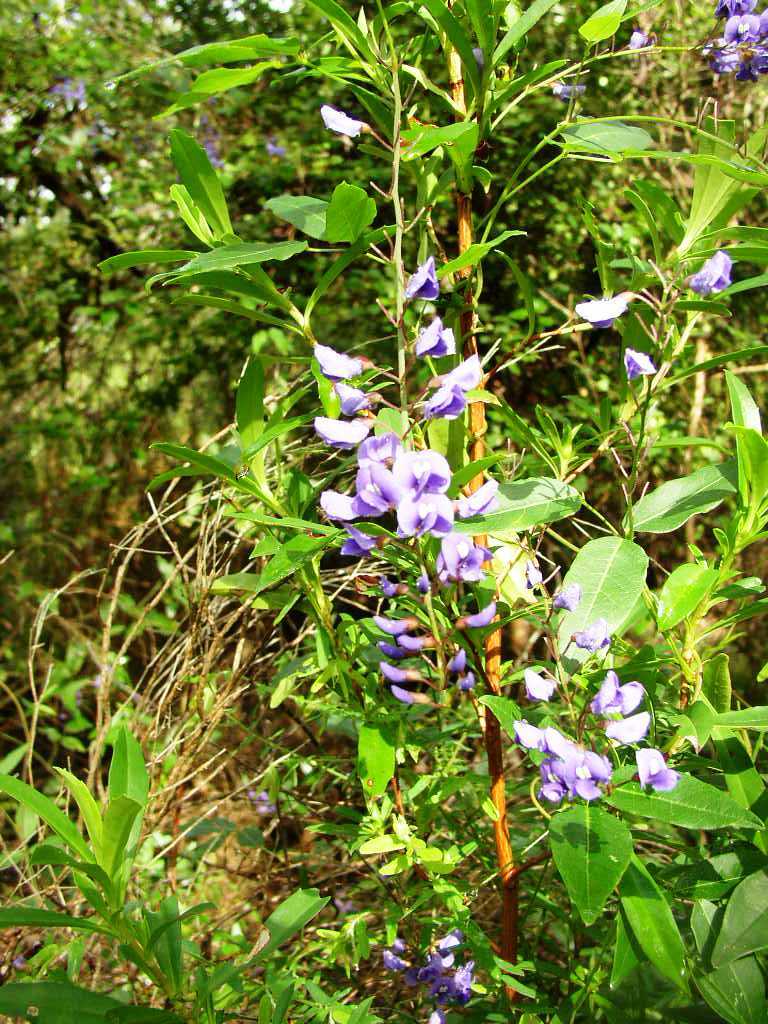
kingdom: Plantae
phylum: Tracheophyta
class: Magnoliopsida
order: Fabales
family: Fabaceae
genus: Hardenbergia
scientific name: Hardenbergia comptoniana
